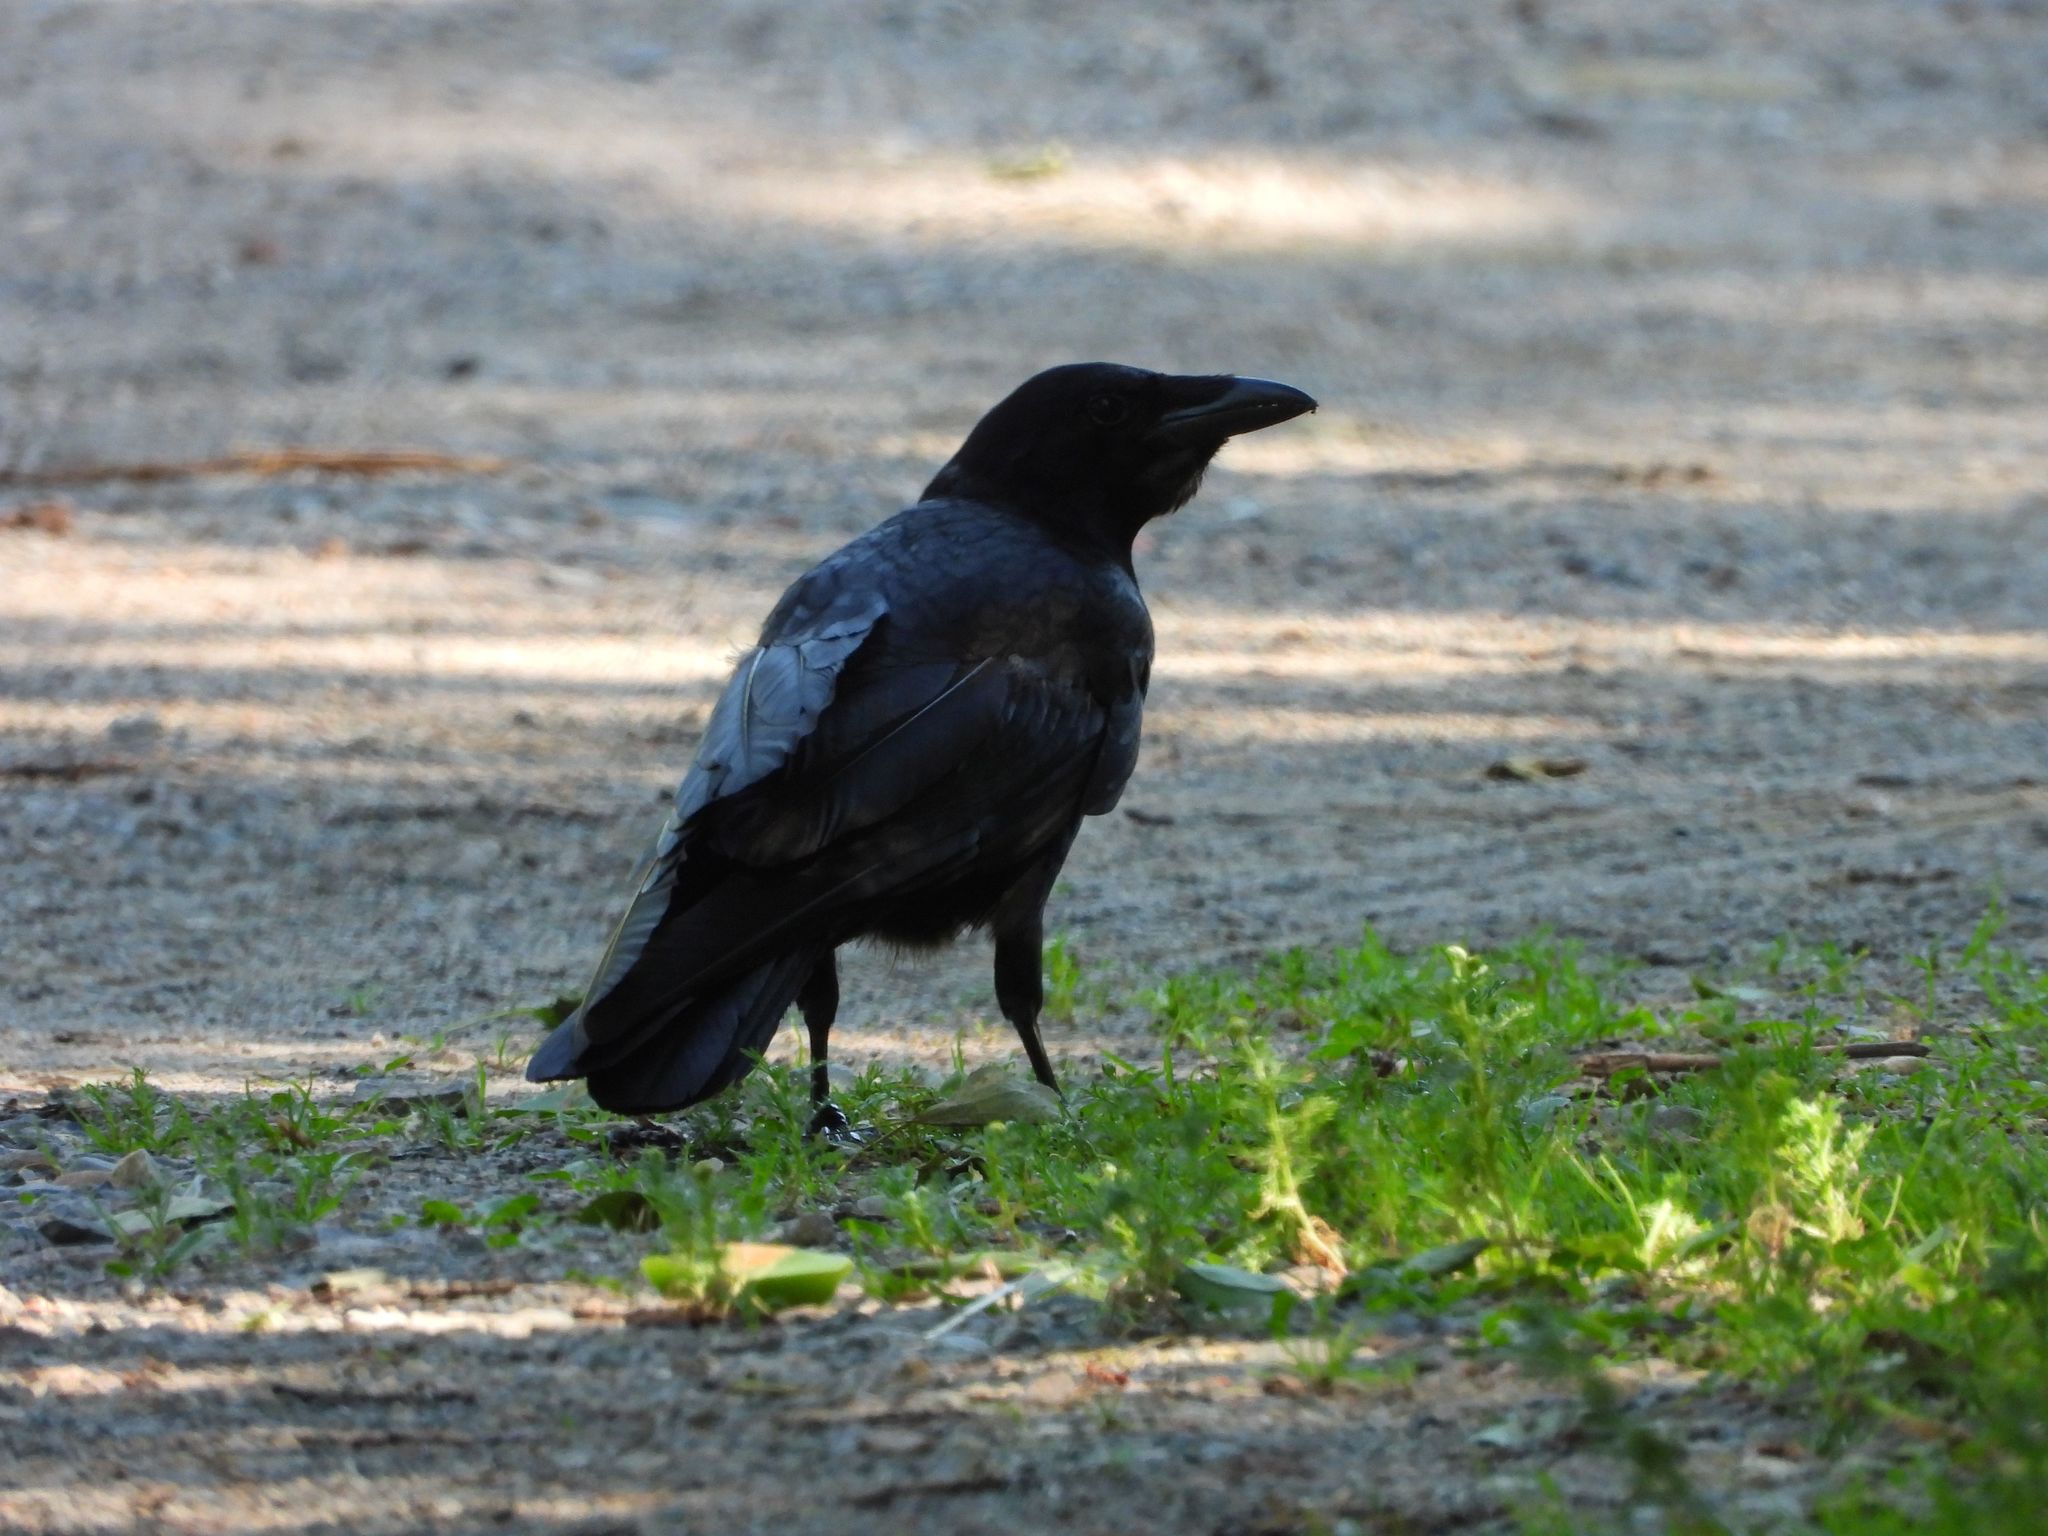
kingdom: Animalia
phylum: Chordata
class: Aves
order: Passeriformes
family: Corvidae
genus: Corvus
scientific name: Corvus corax
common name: Common raven
